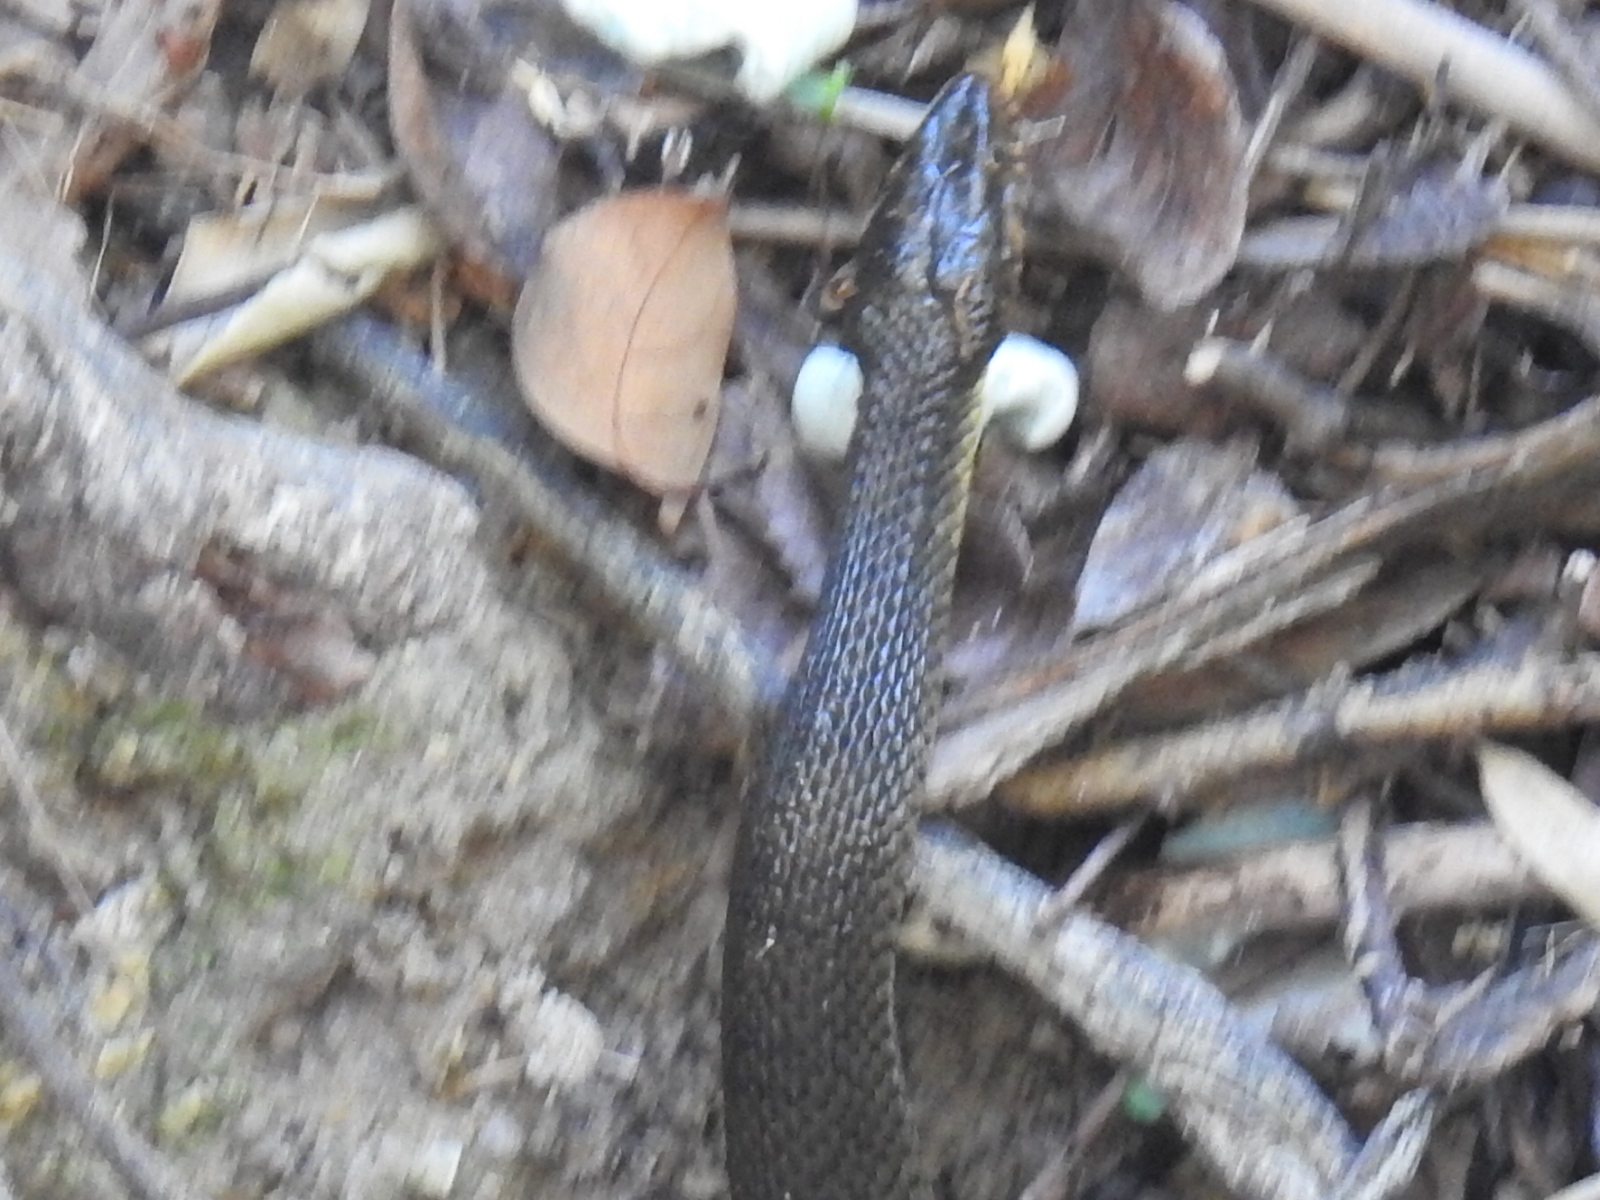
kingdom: Animalia
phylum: Chordata
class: Squamata
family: Colubridae
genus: Nerodia
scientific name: Nerodia erythrogaster
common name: Plainbelly water snake
